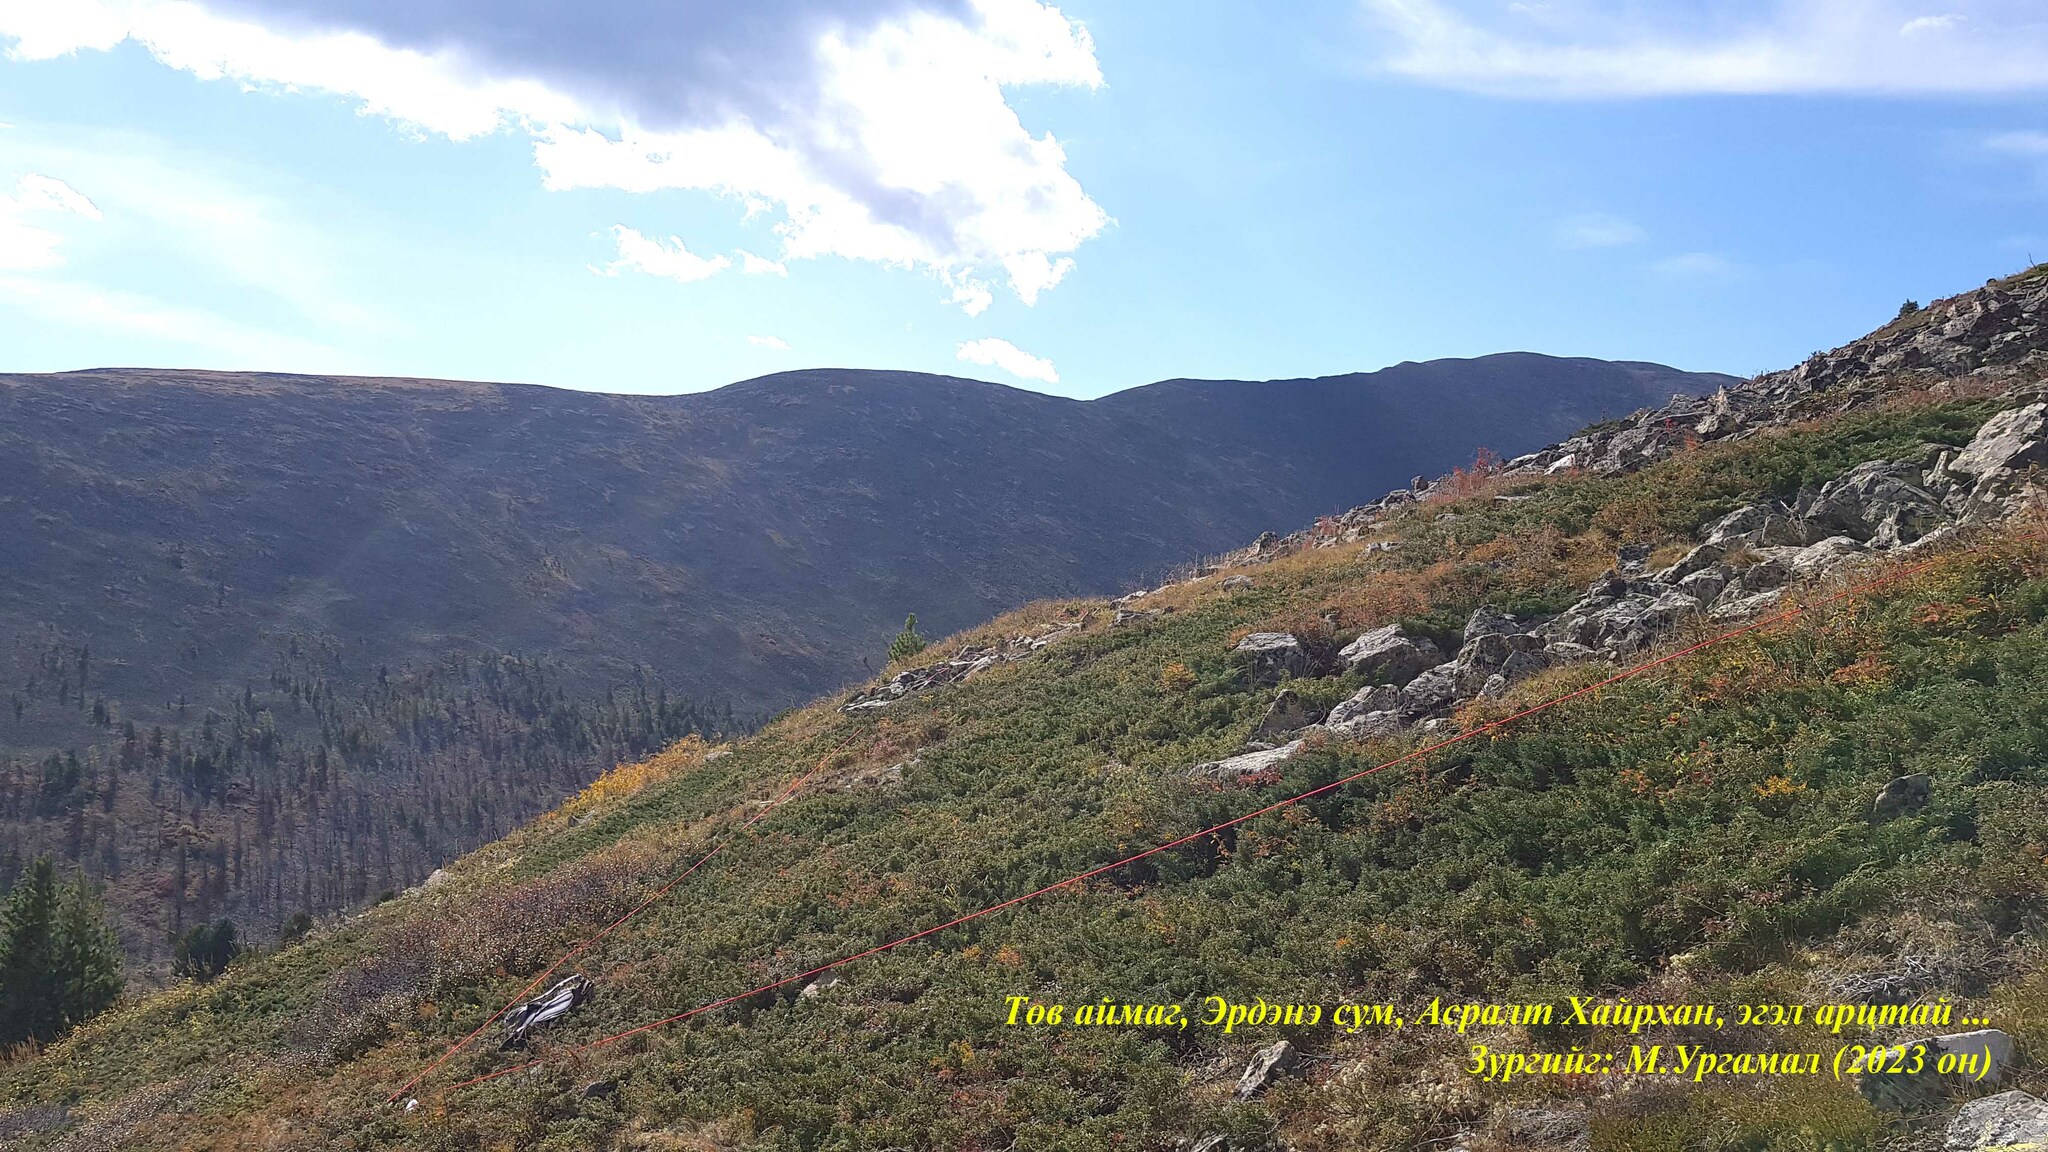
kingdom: Plantae
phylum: Tracheophyta
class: Pinopsida
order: Pinales
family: Cupressaceae
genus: Juniperus
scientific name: Juniperus communis
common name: Common juniper
